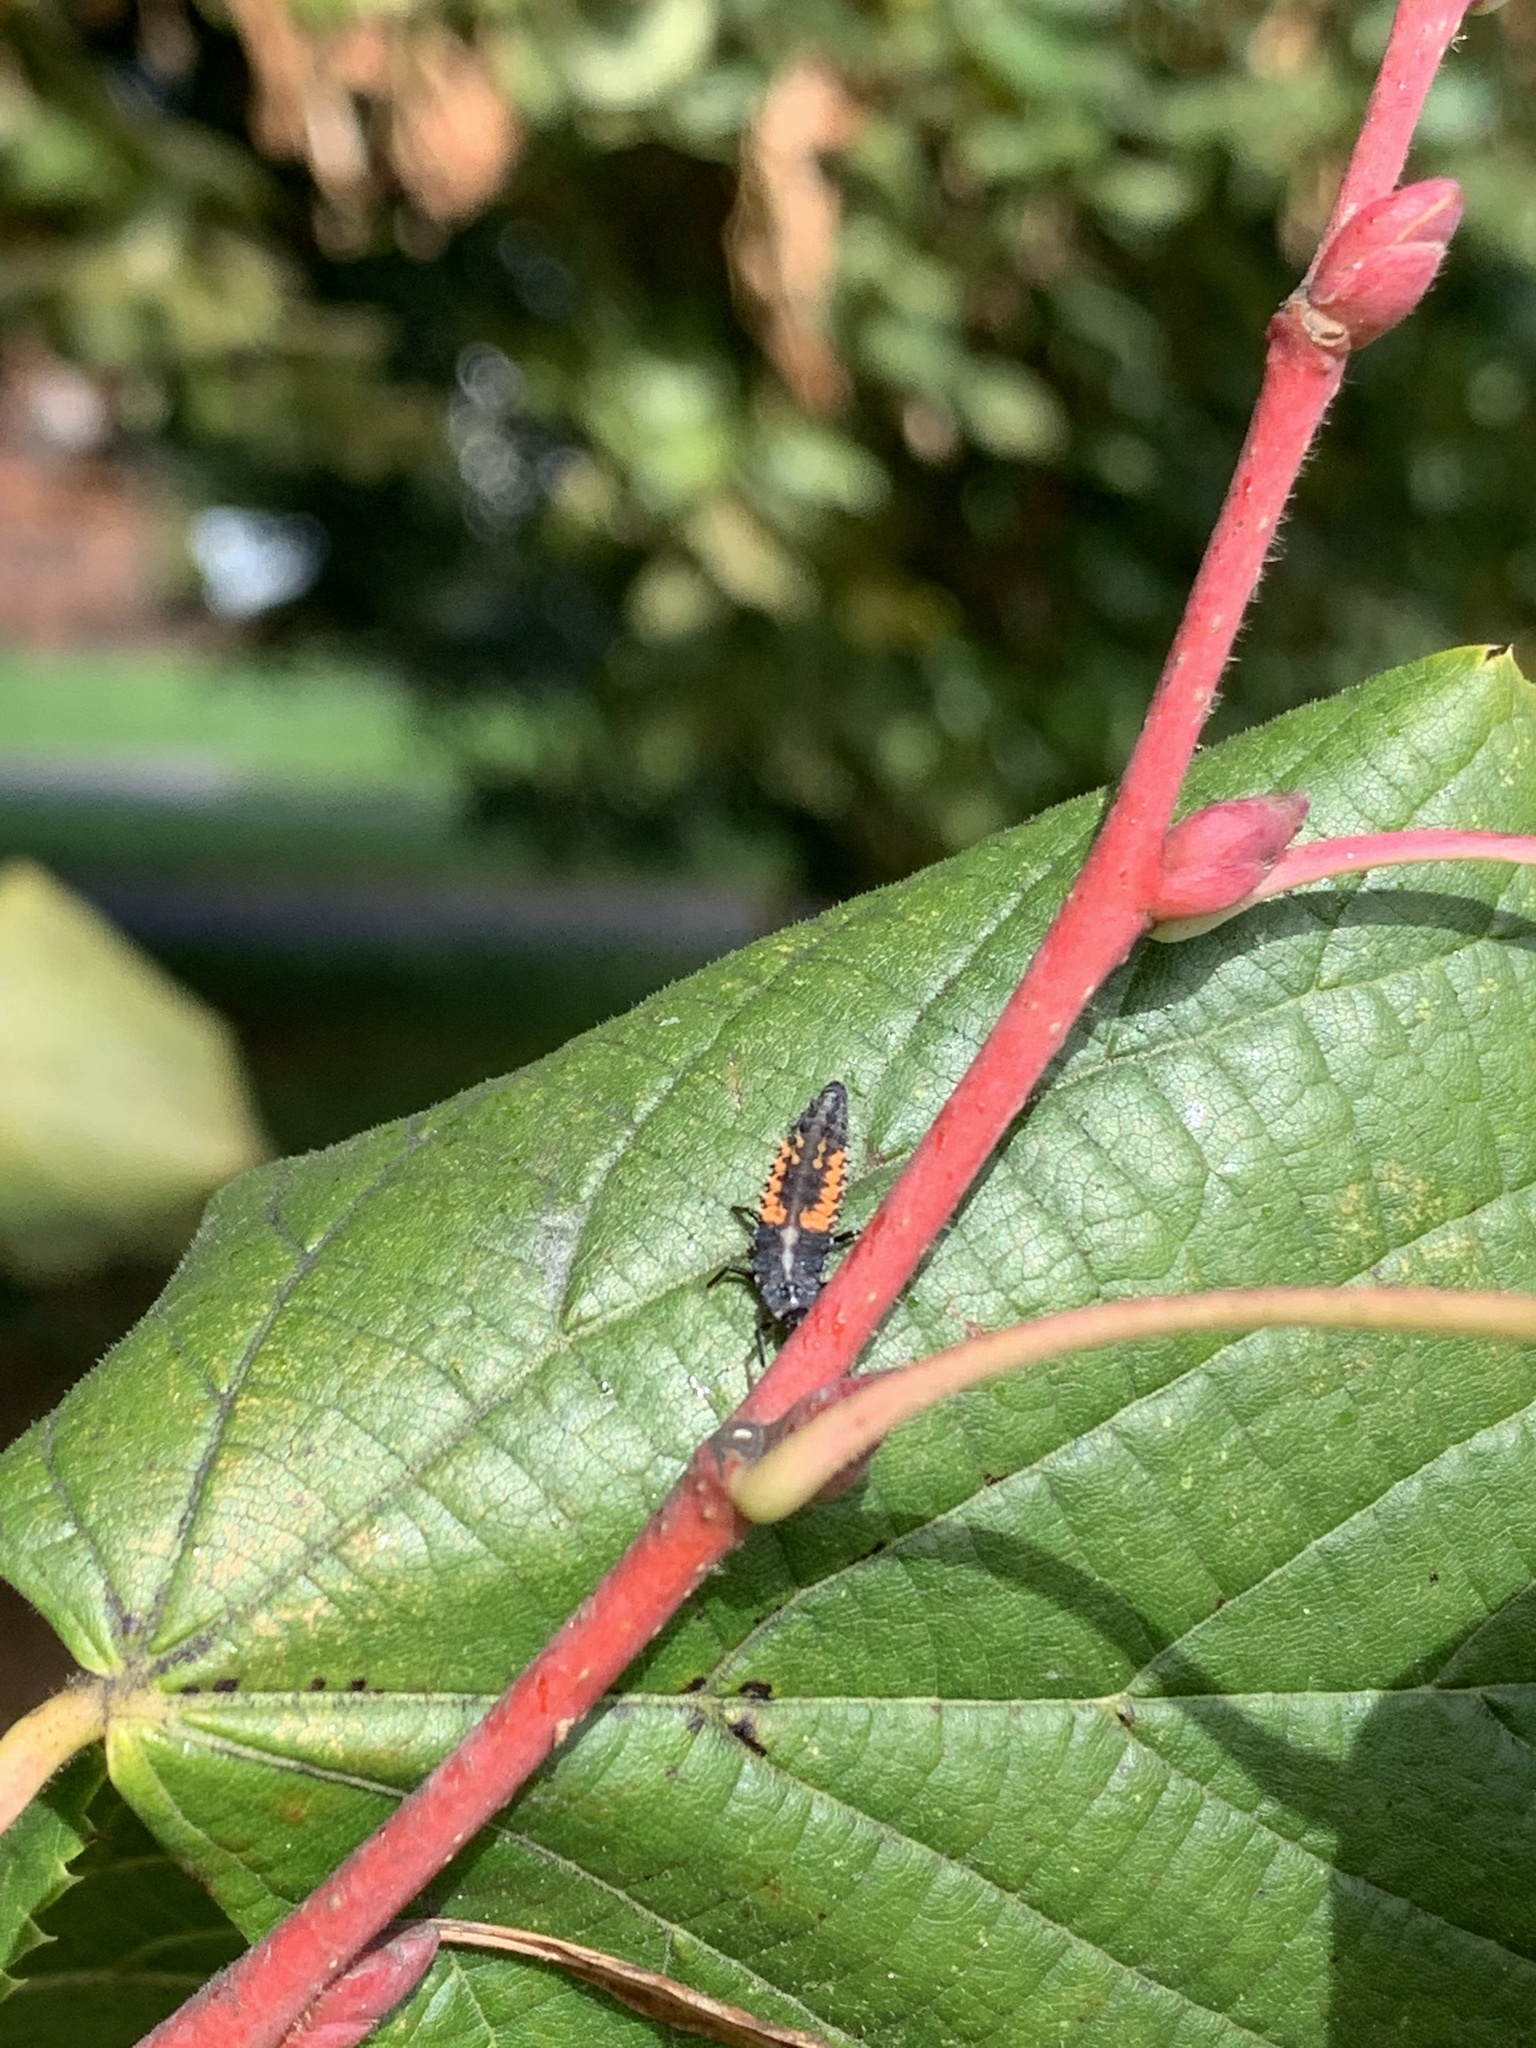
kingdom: Animalia
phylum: Arthropoda
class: Insecta
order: Coleoptera
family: Coccinellidae
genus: Harmonia
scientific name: Harmonia axyridis
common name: Harlequin ladybird
